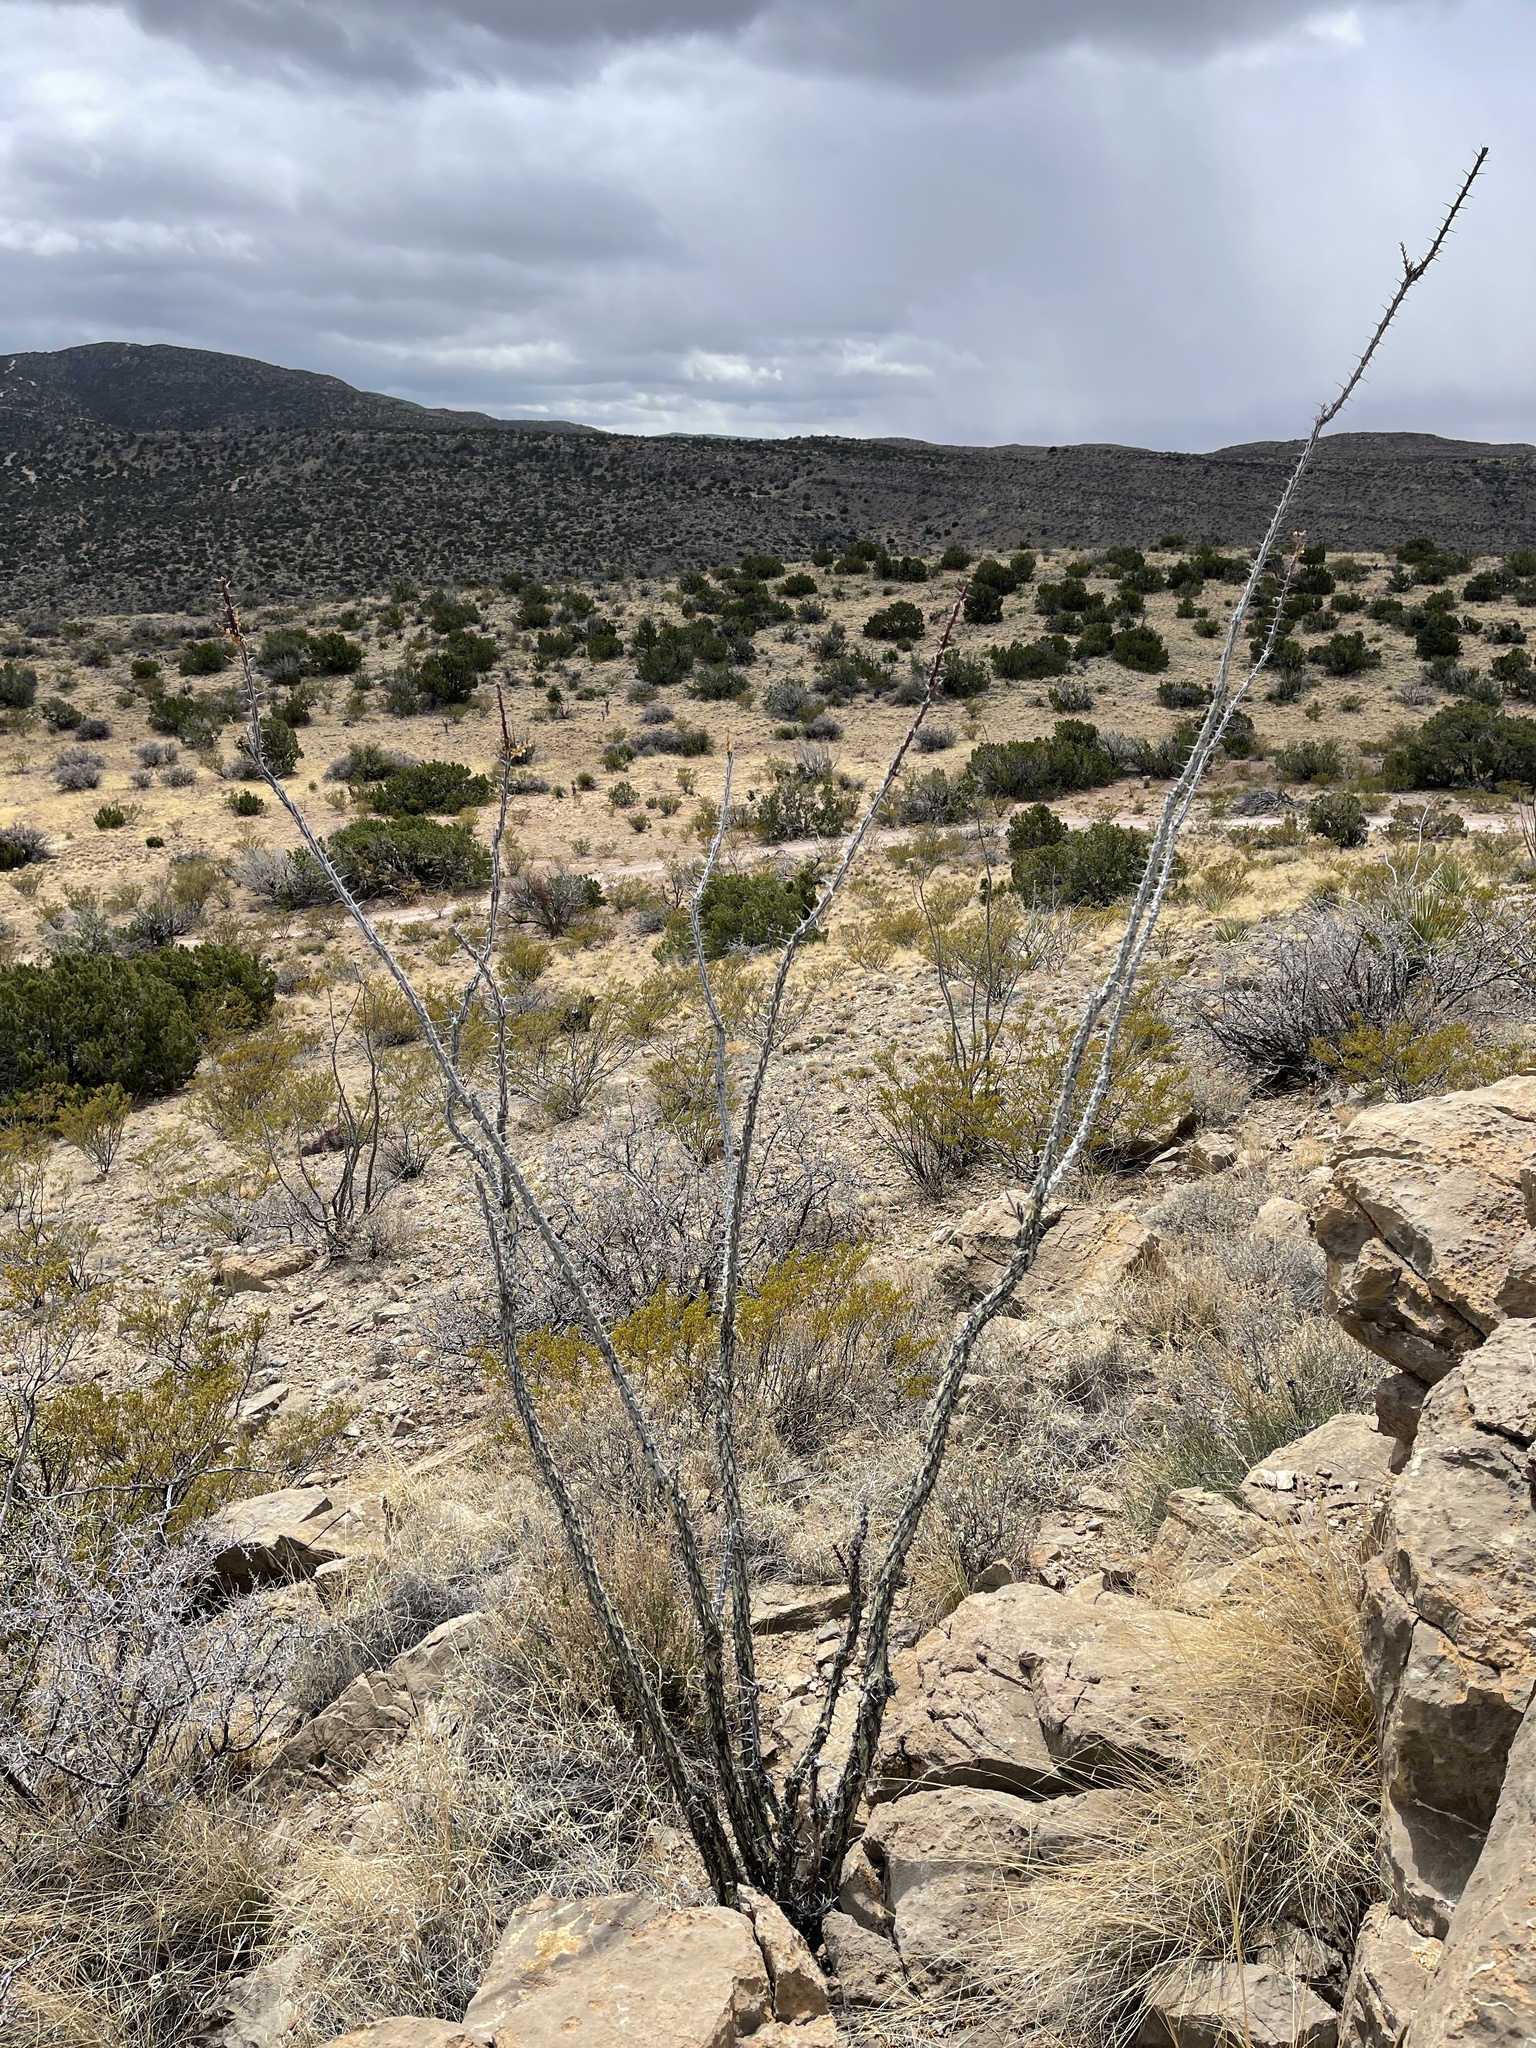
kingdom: Plantae
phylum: Tracheophyta
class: Magnoliopsida
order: Ericales
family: Fouquieriaceae
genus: Fouquieria
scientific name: Fouquieria splendens
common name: Vine-cactus
